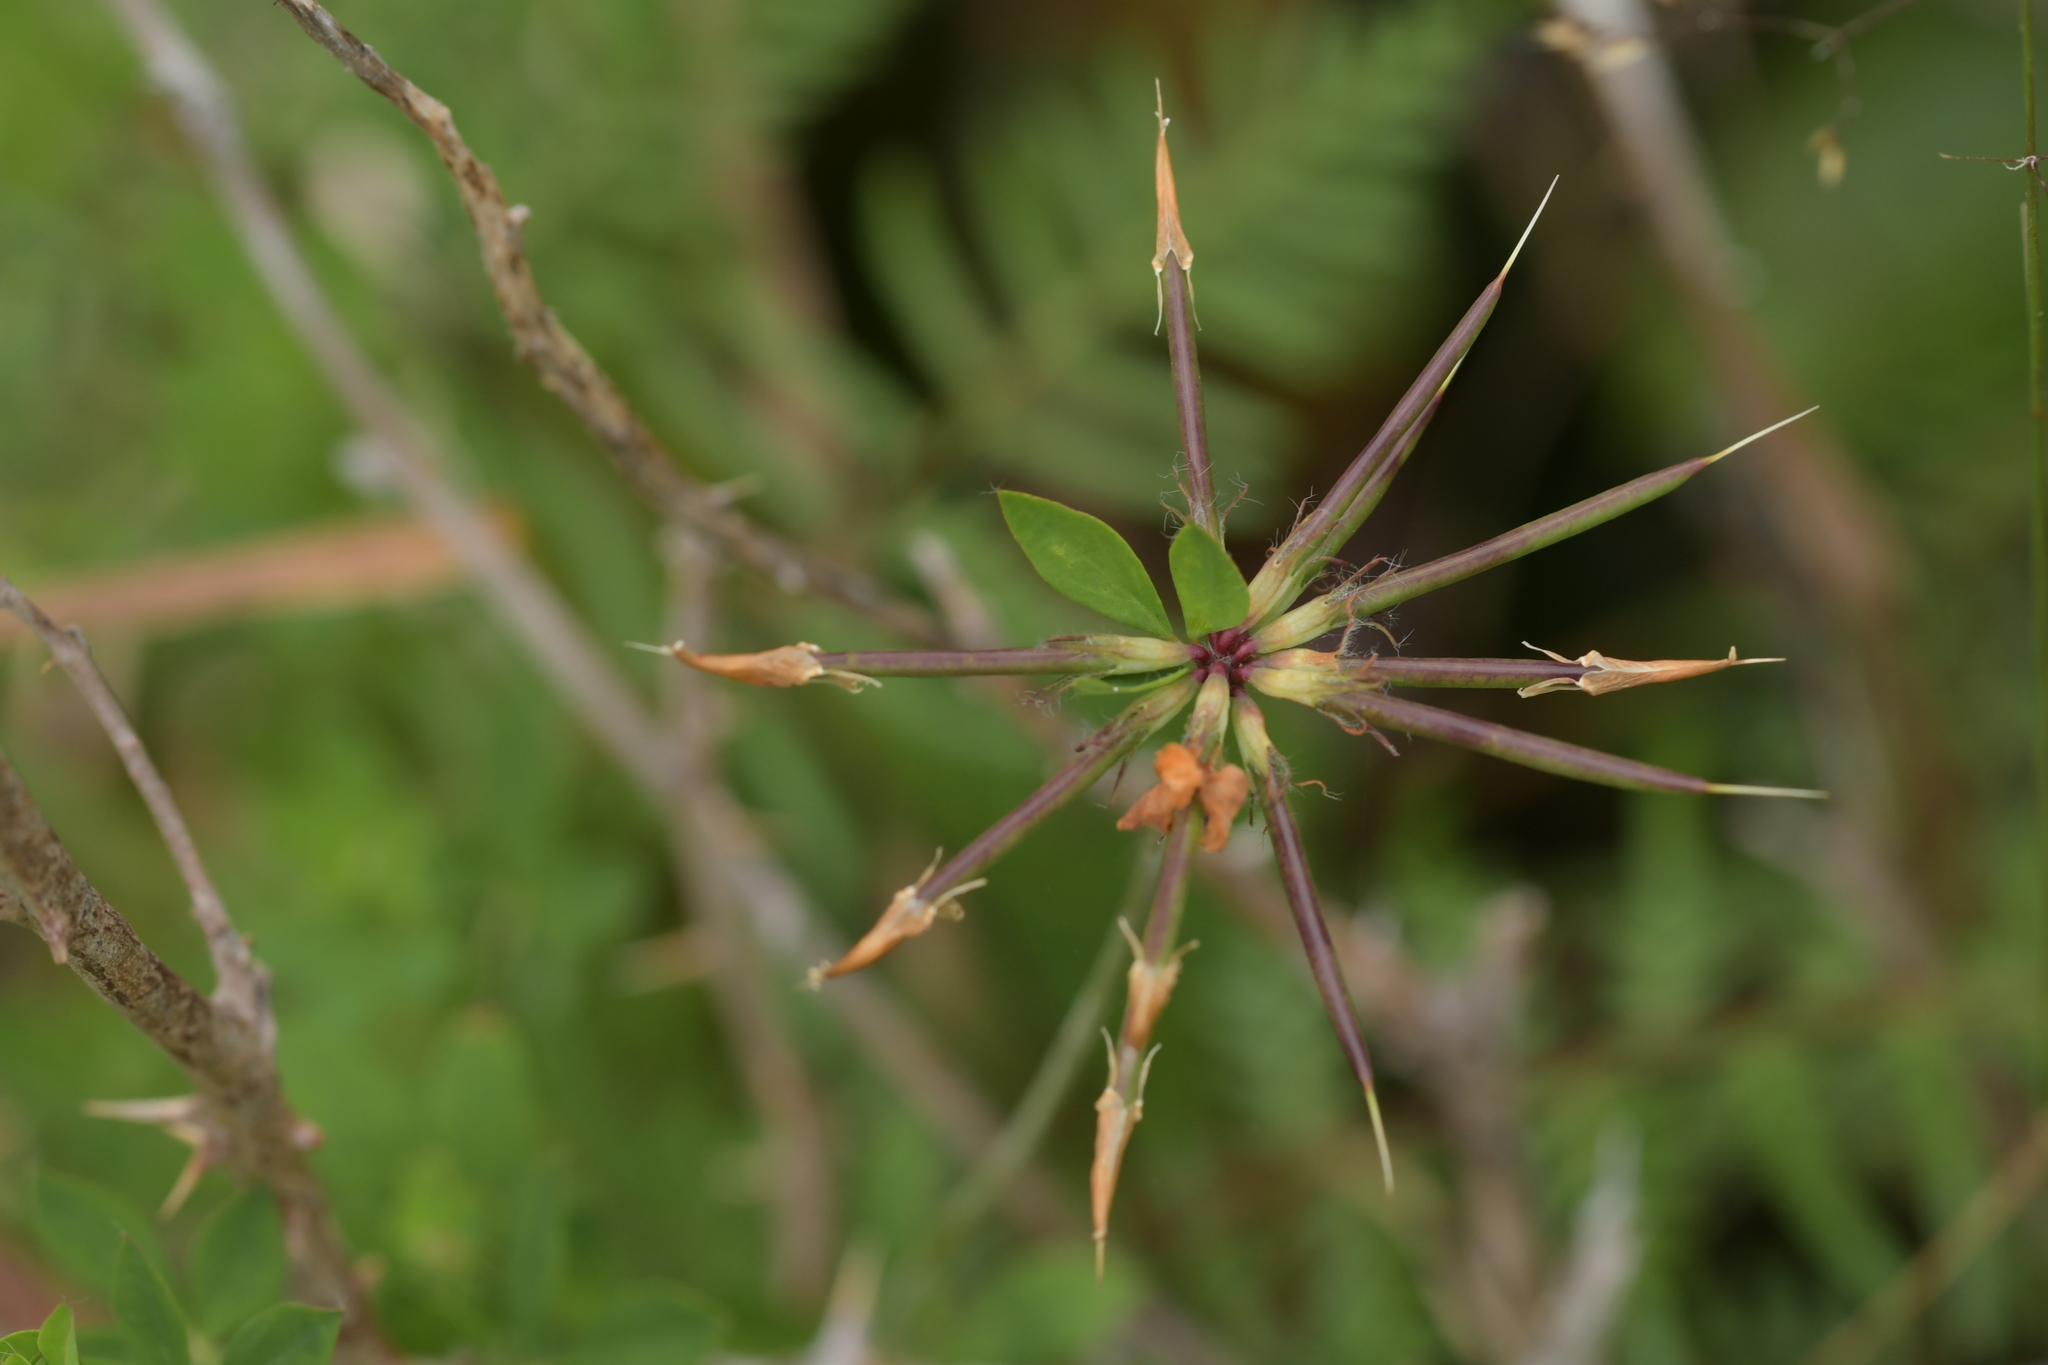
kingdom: Plantae
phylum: Tracheophyta
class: Magnoliopsida
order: Fabales
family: Fabaceae
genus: Lotus
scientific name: Lotus pedunculatus
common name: Greater birdsfoot-trefoil
